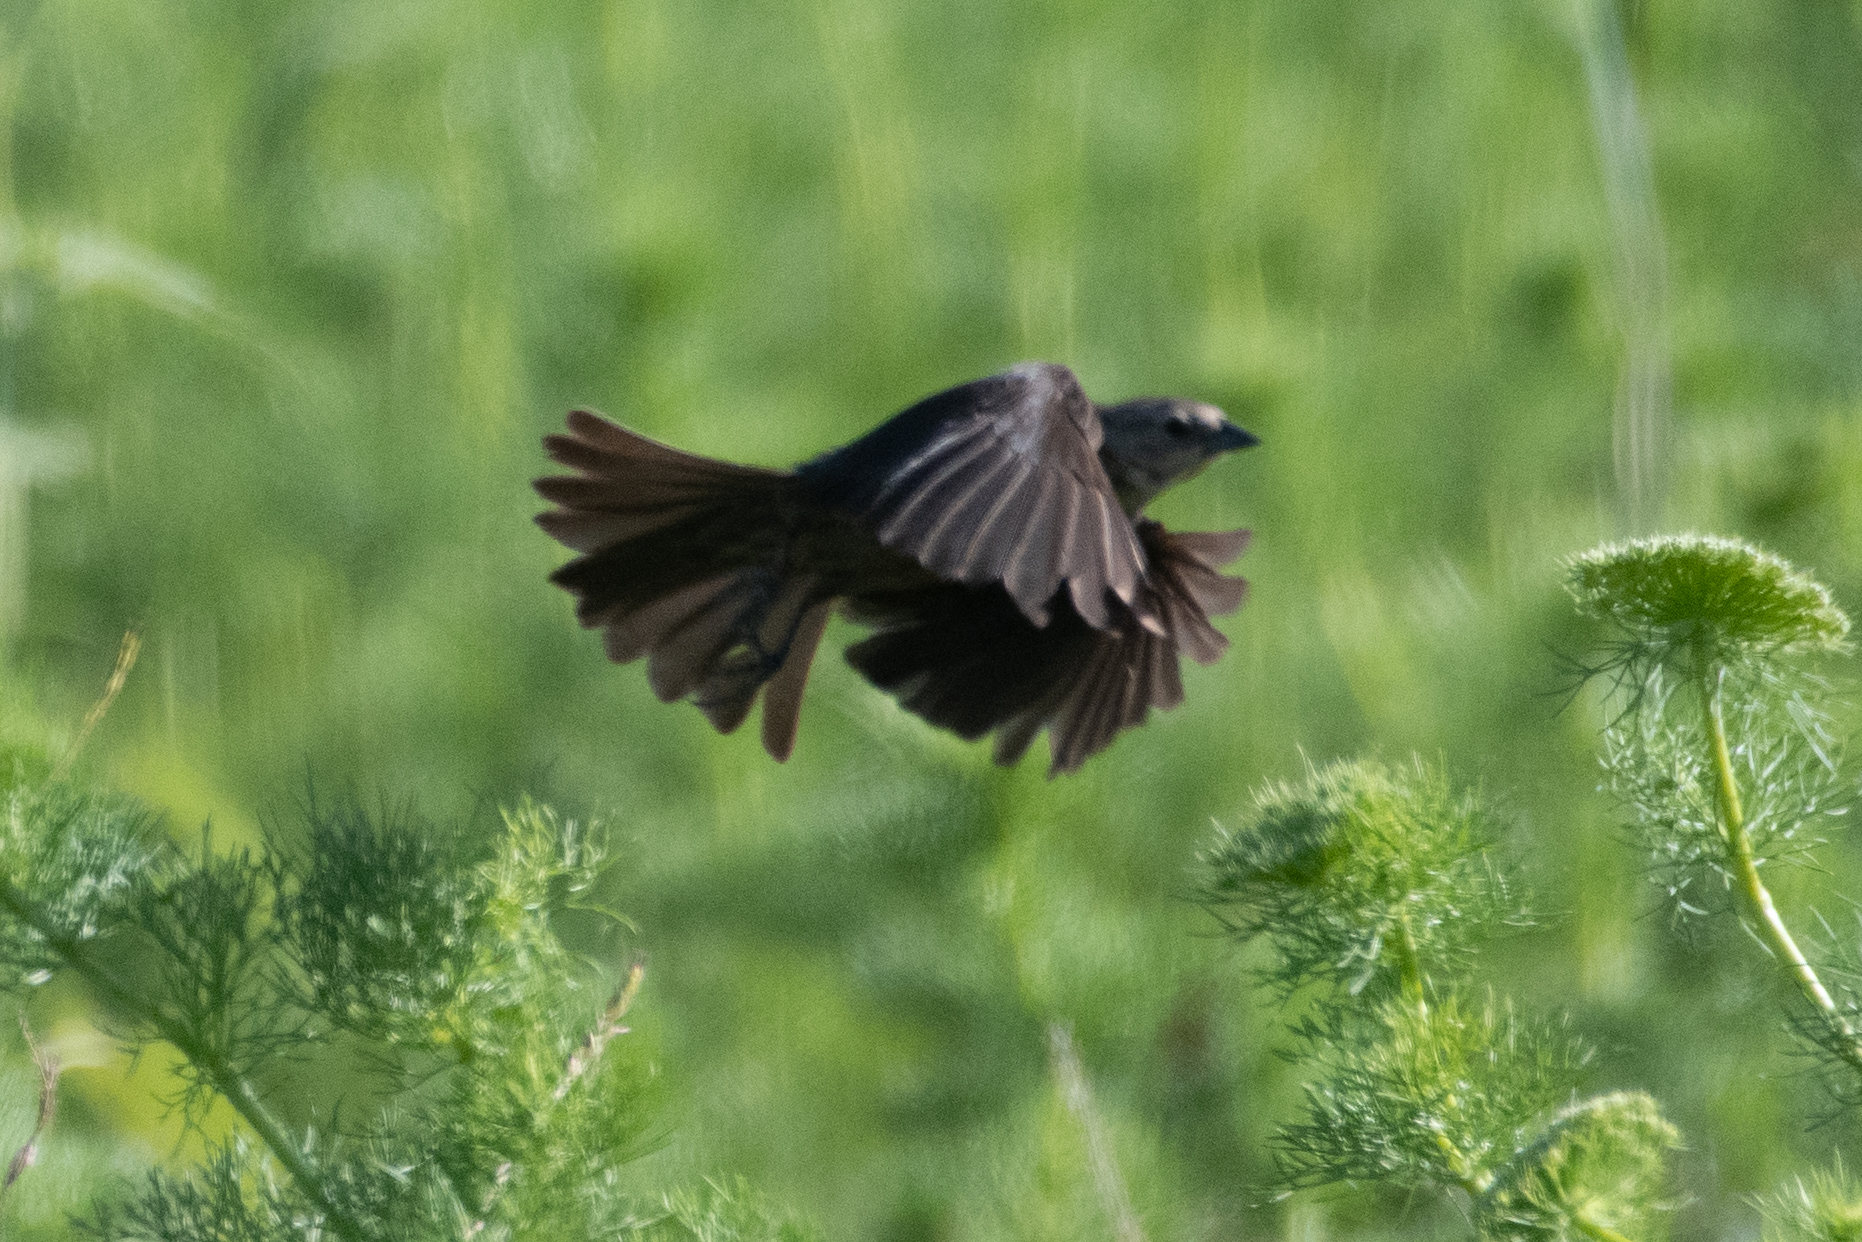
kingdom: Animalia
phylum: Chordata
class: Aves
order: Passeriformes
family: Icteridae
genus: Molothrus
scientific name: Molothrus ater
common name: Brown-headed cowbird
